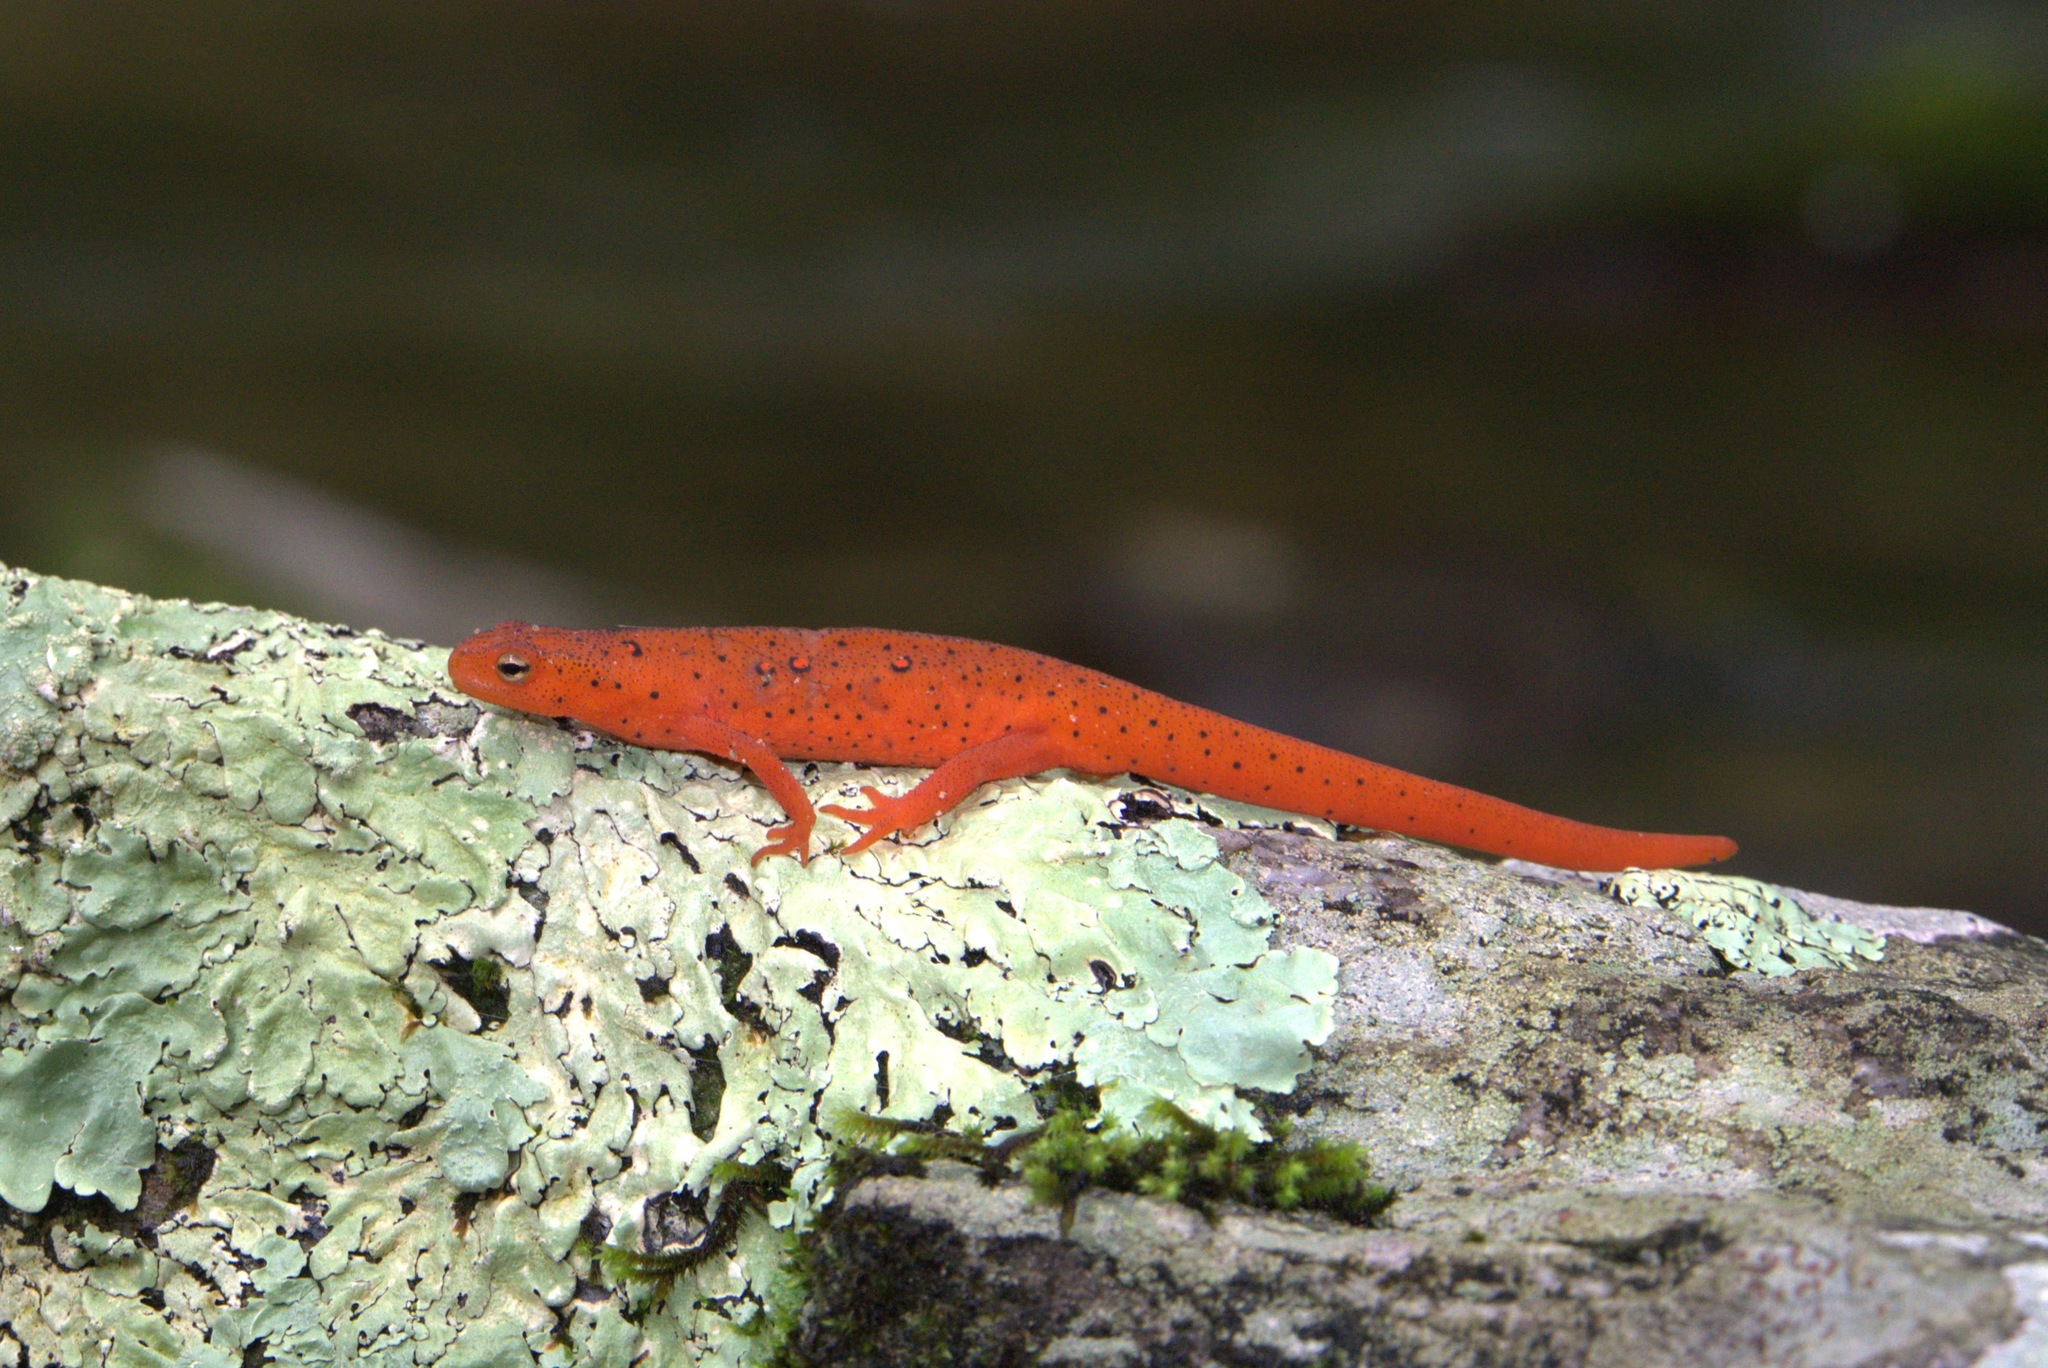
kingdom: Animalia
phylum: Chordata
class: Amphibia
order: Caudata
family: Salamandridae
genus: Notophthalmus
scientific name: Notophthalmus viridescens
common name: Eastern newt
